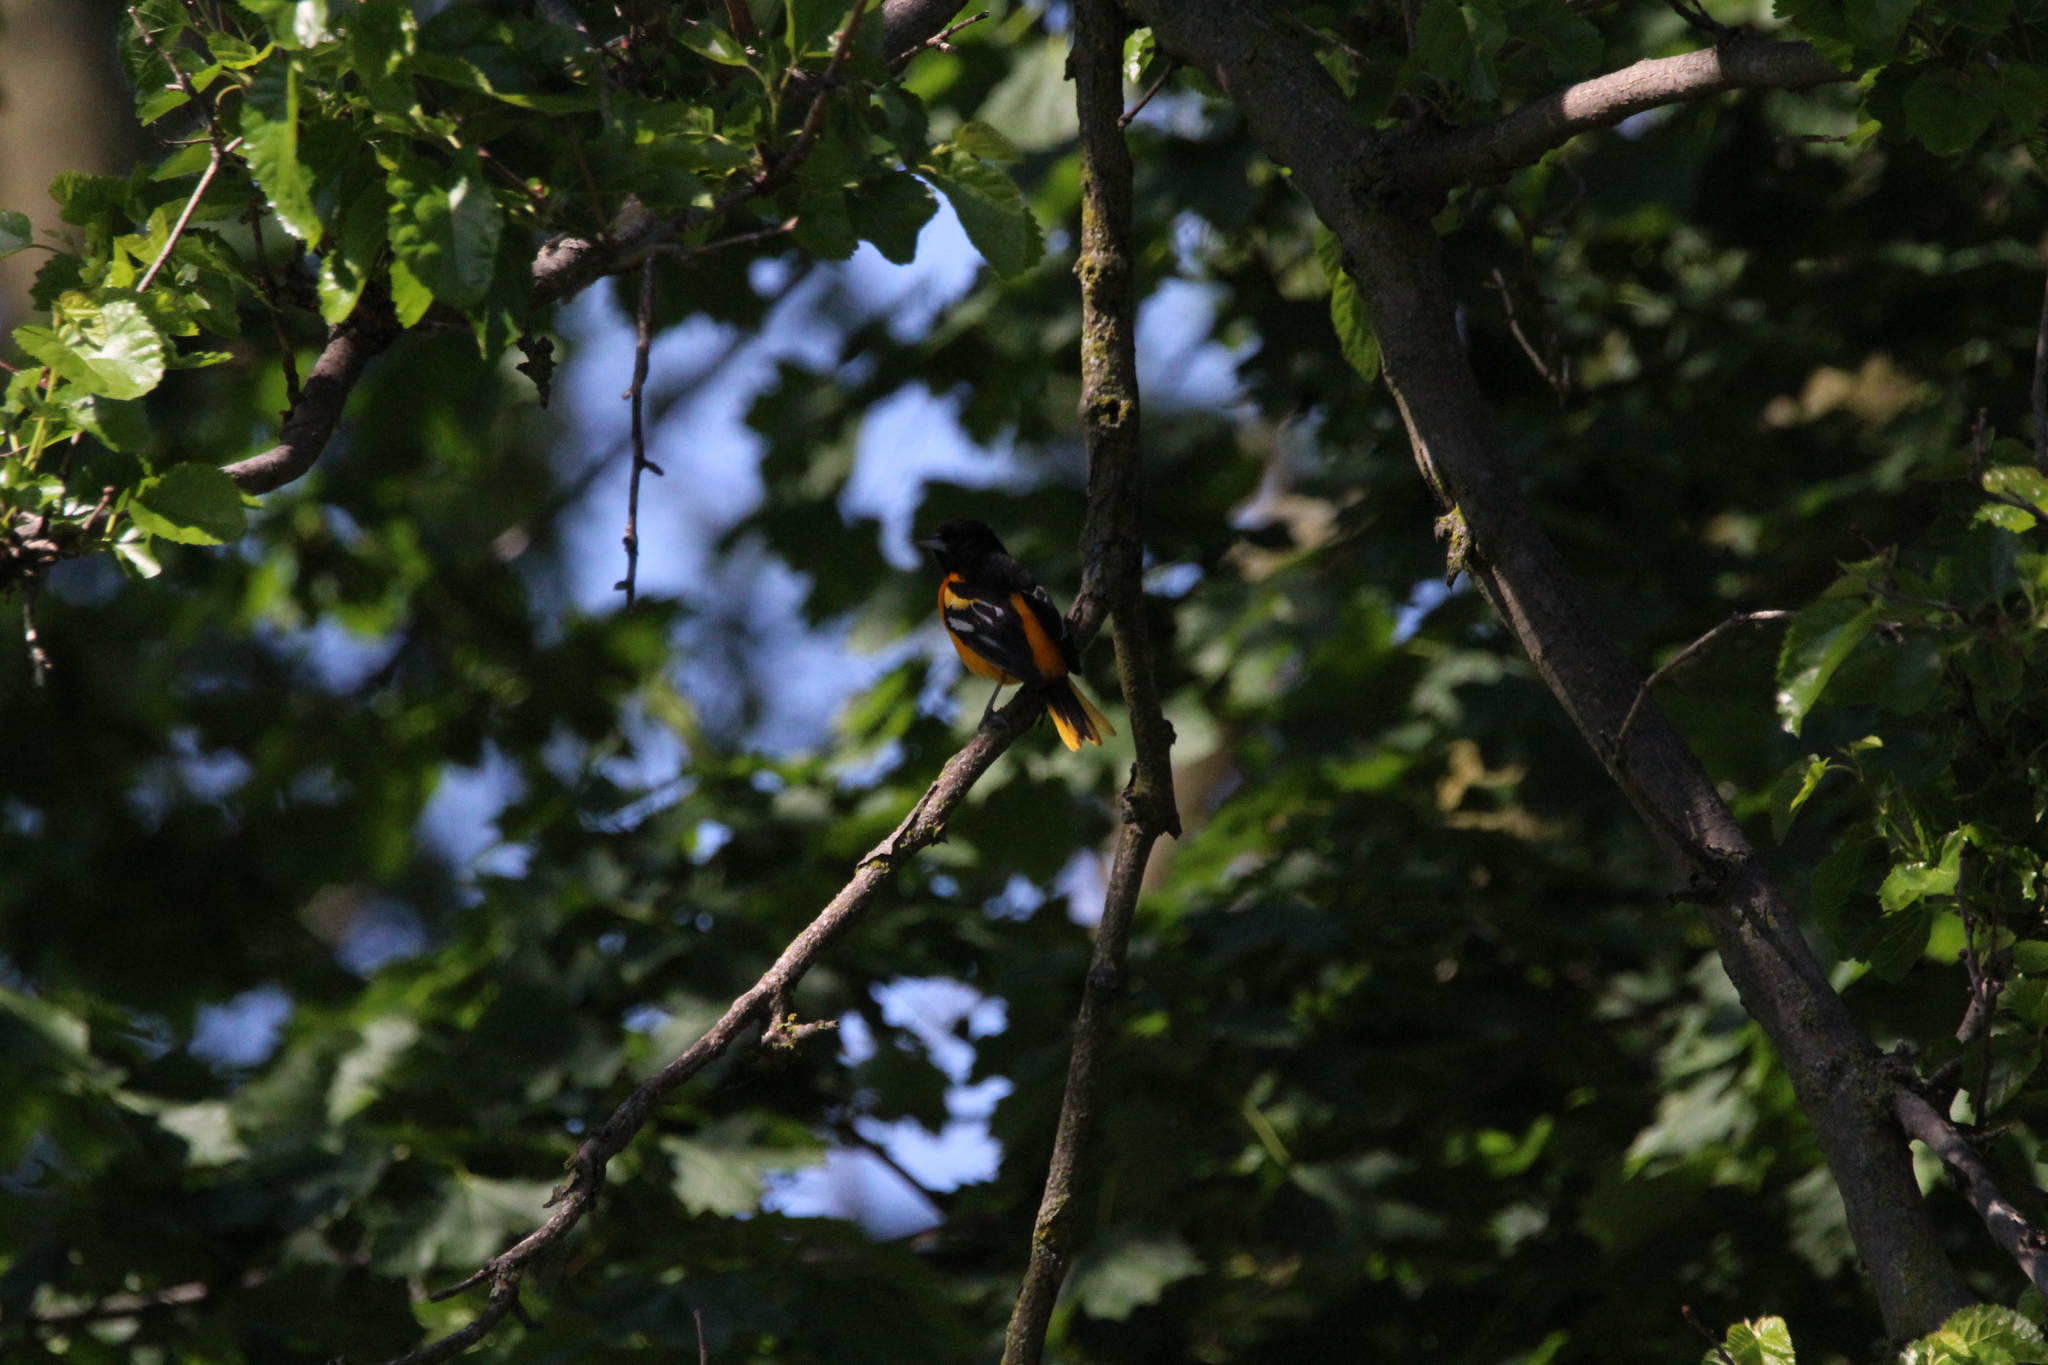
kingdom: Animalia
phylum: Chordata
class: Aves
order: Passeriformes
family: Icteridae
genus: Icterus
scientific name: Icterus galbula
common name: Baltimore oriole
